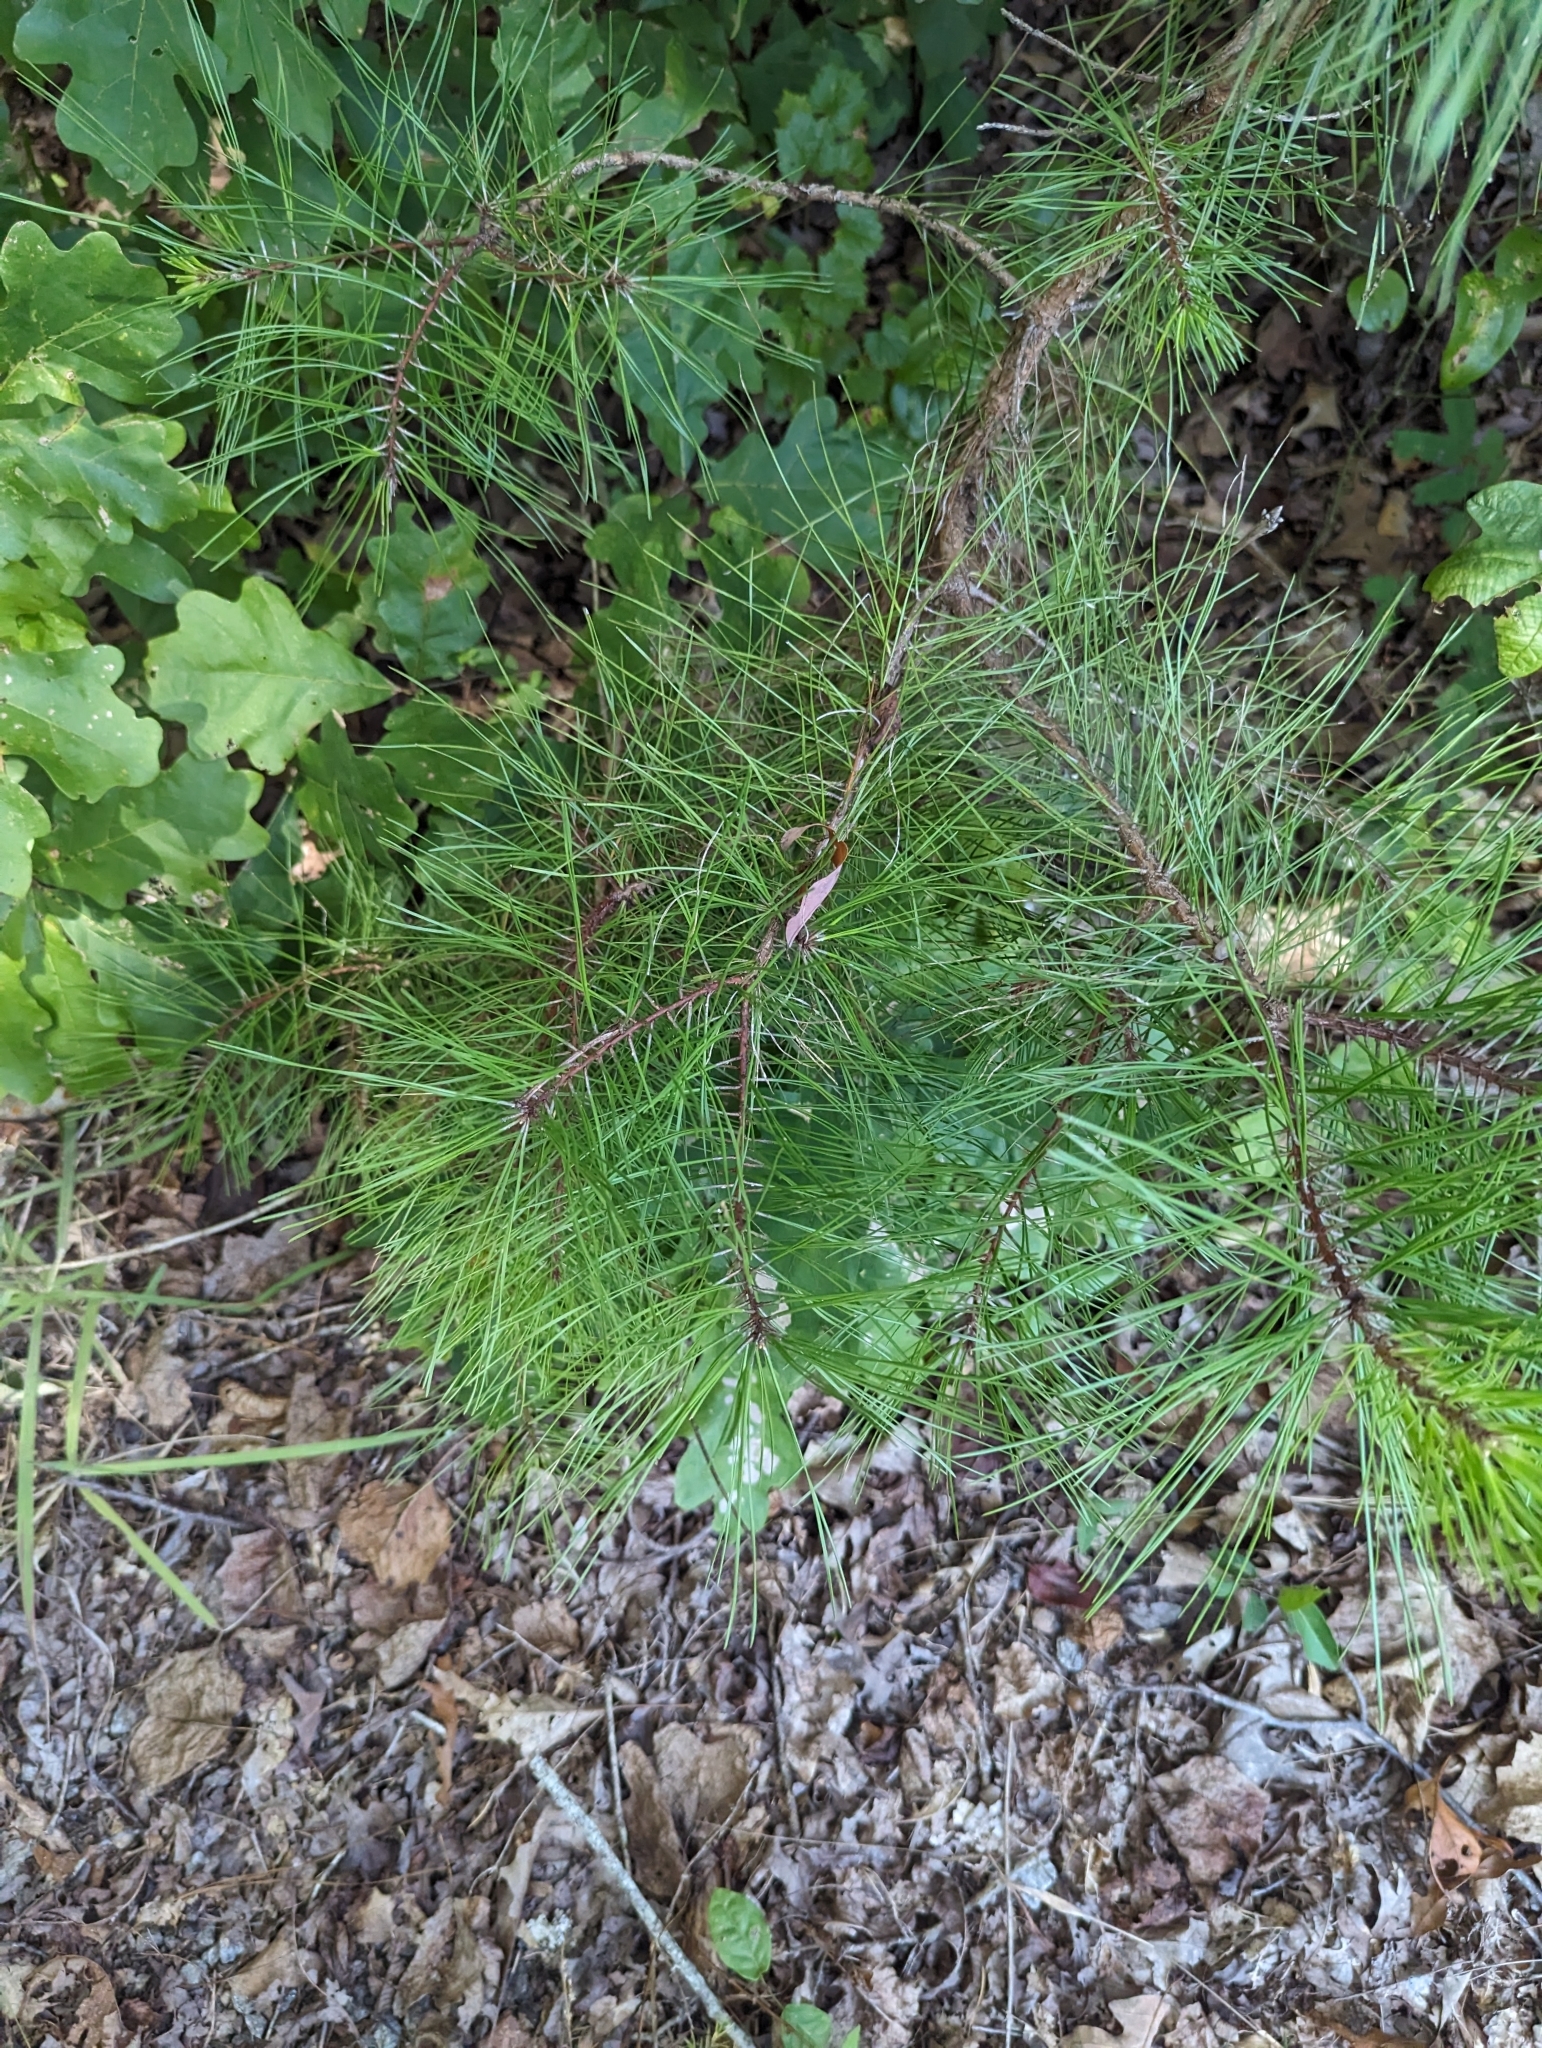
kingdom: Plantae
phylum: Tracheophyta
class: Pinopsida
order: Pinales
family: Pinaceae
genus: Pinus
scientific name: Pinus taeda
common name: Loblolly pine
